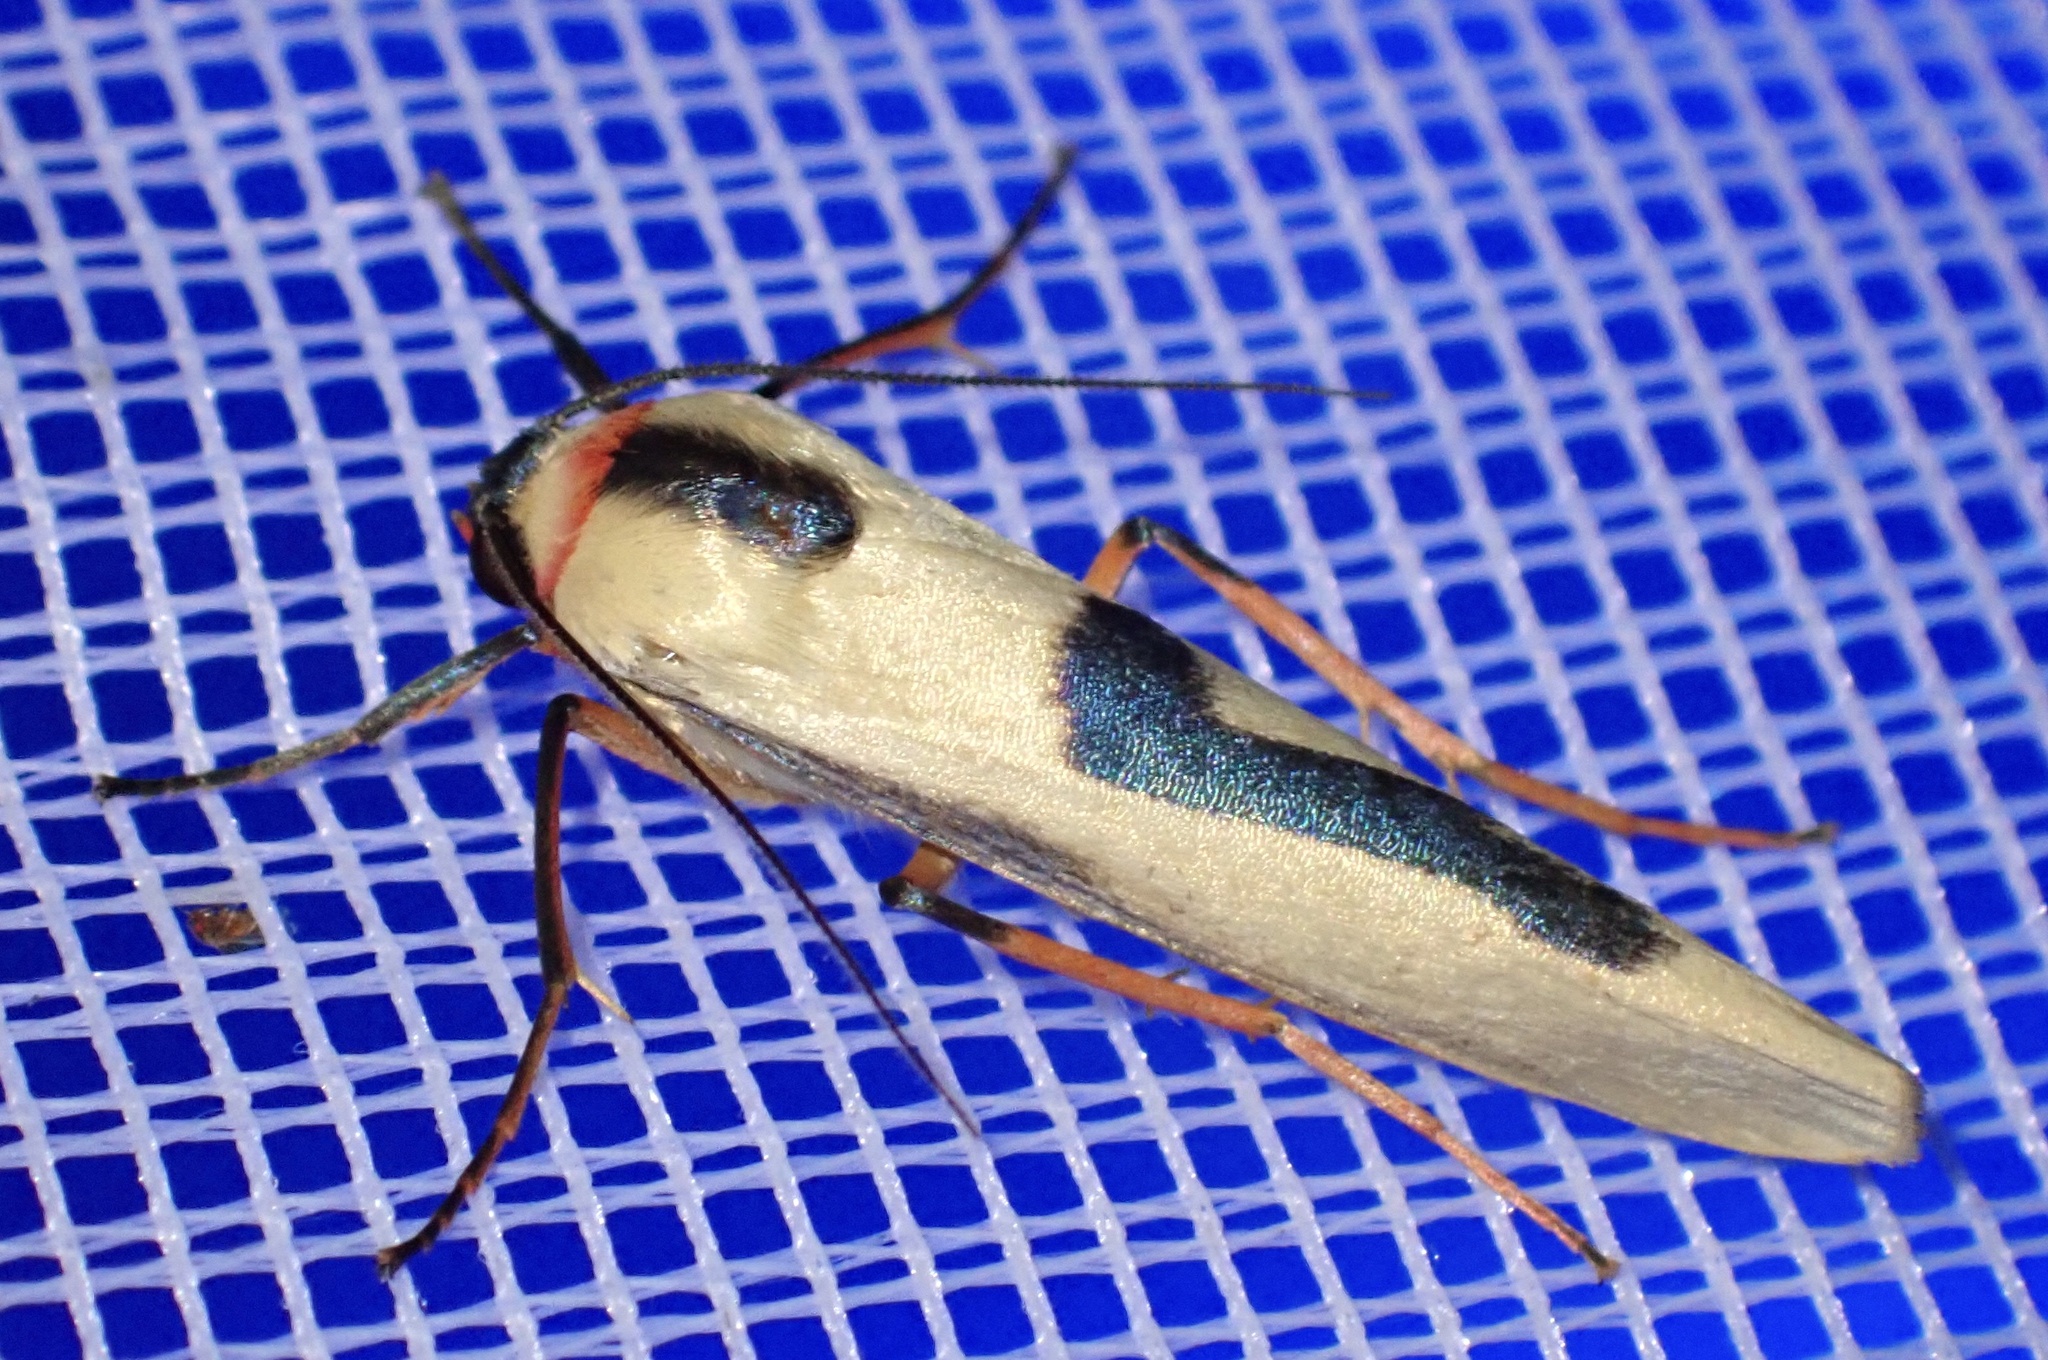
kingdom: Animalia
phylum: Arthropoda
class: Insecta
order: Lepidoptera
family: Erebidae
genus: Oeonistis
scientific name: Oeonistis bicolora
